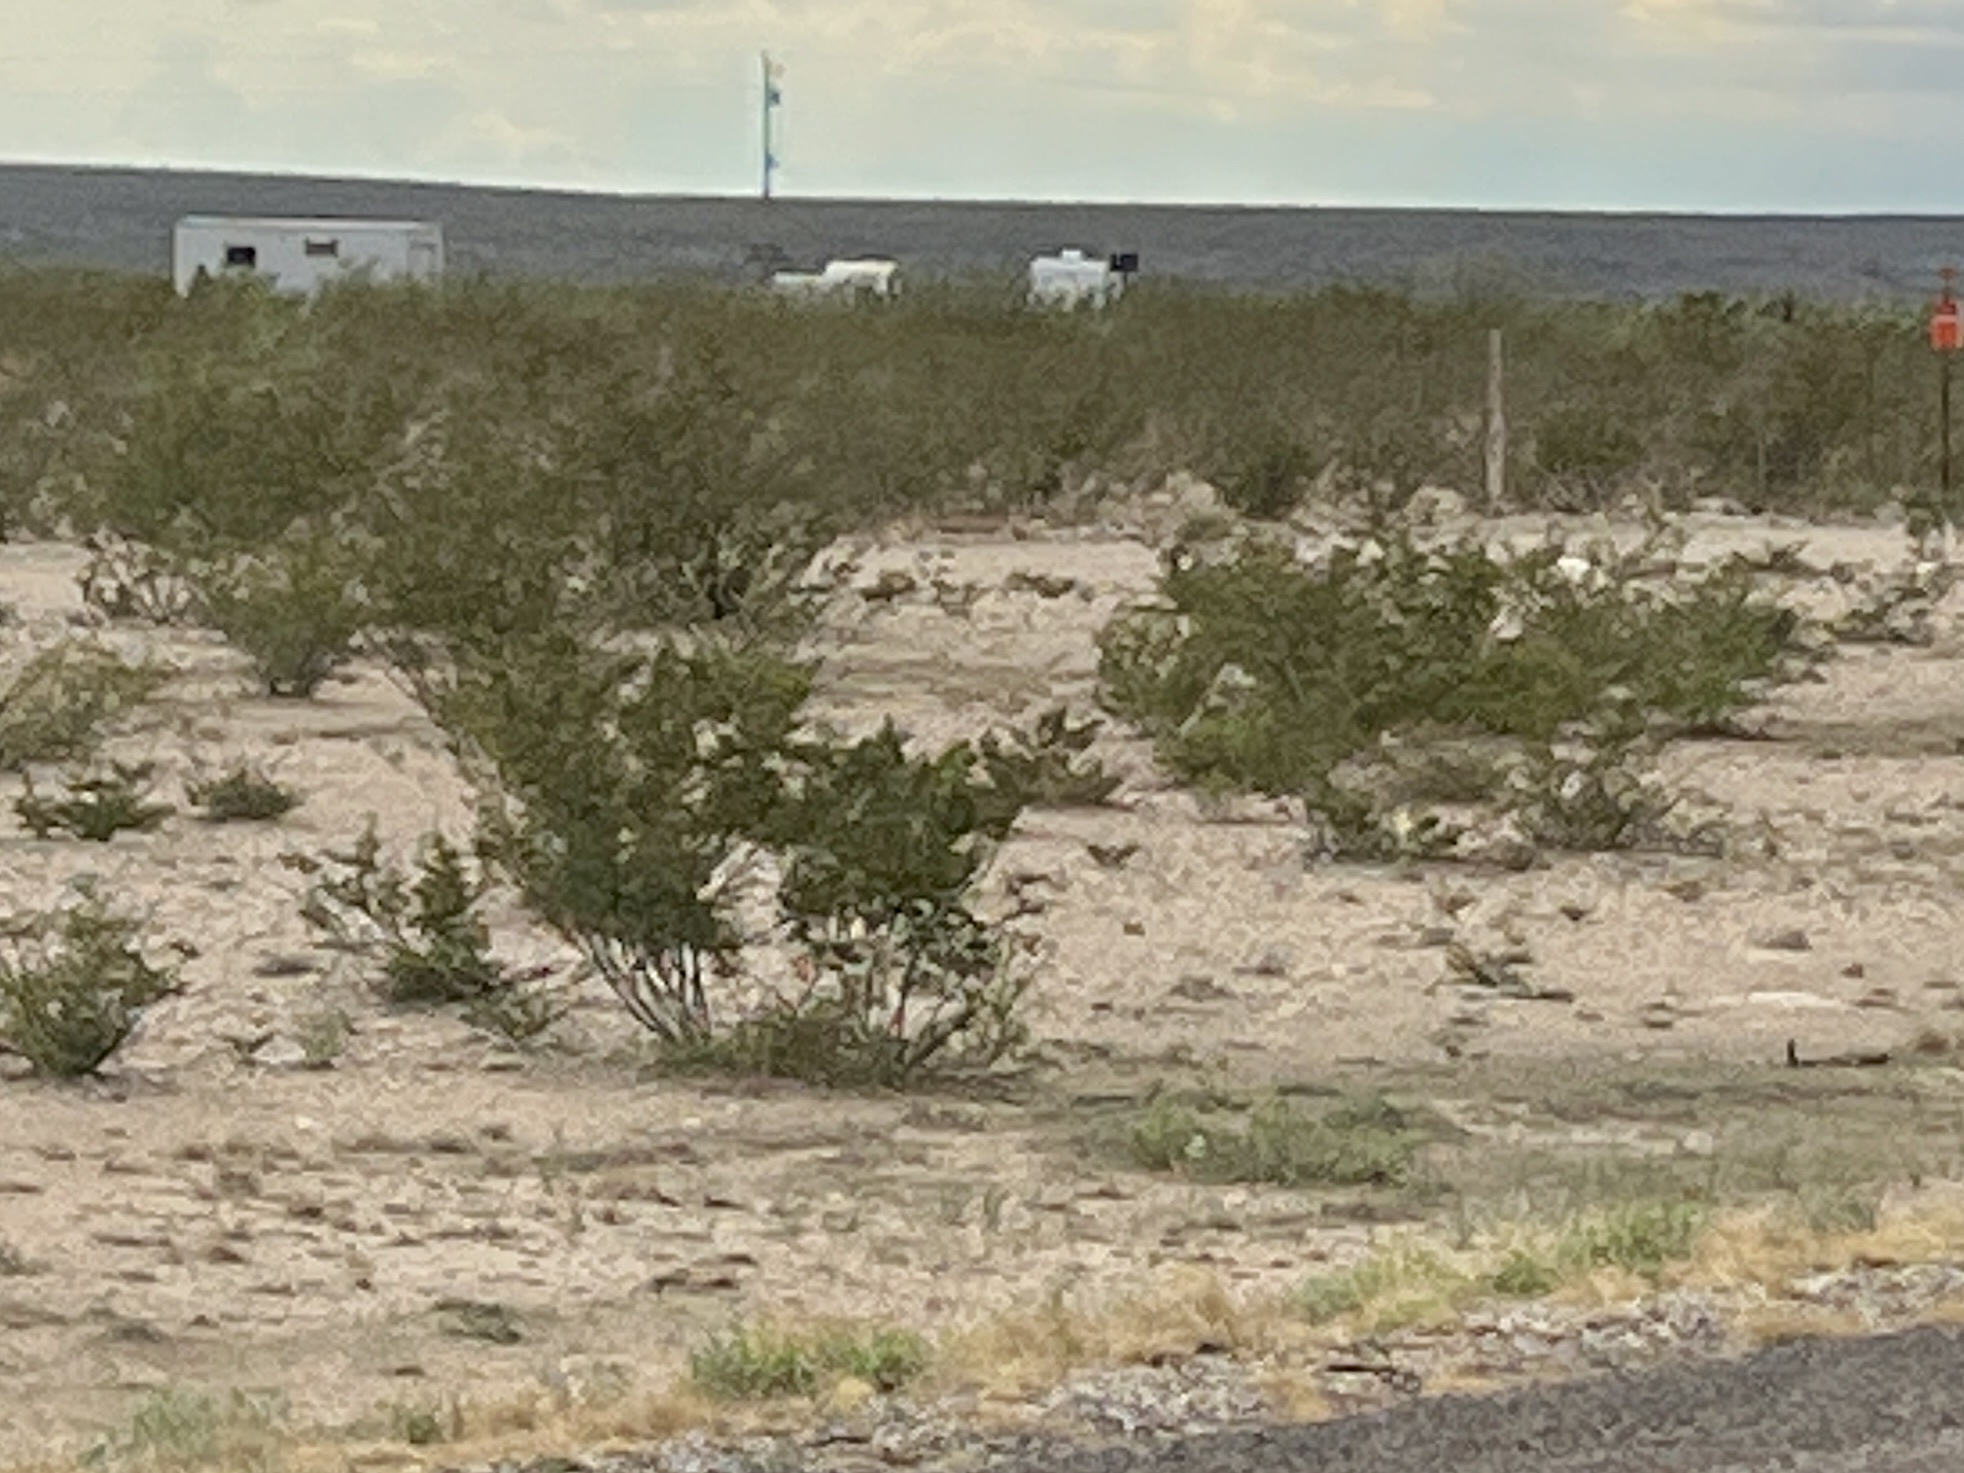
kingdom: Plantae
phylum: Tracheophyta
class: Magnoliopsida
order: Zygophyllales
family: Zygophyllaceae
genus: Larrea
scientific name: Larrea tridentata
